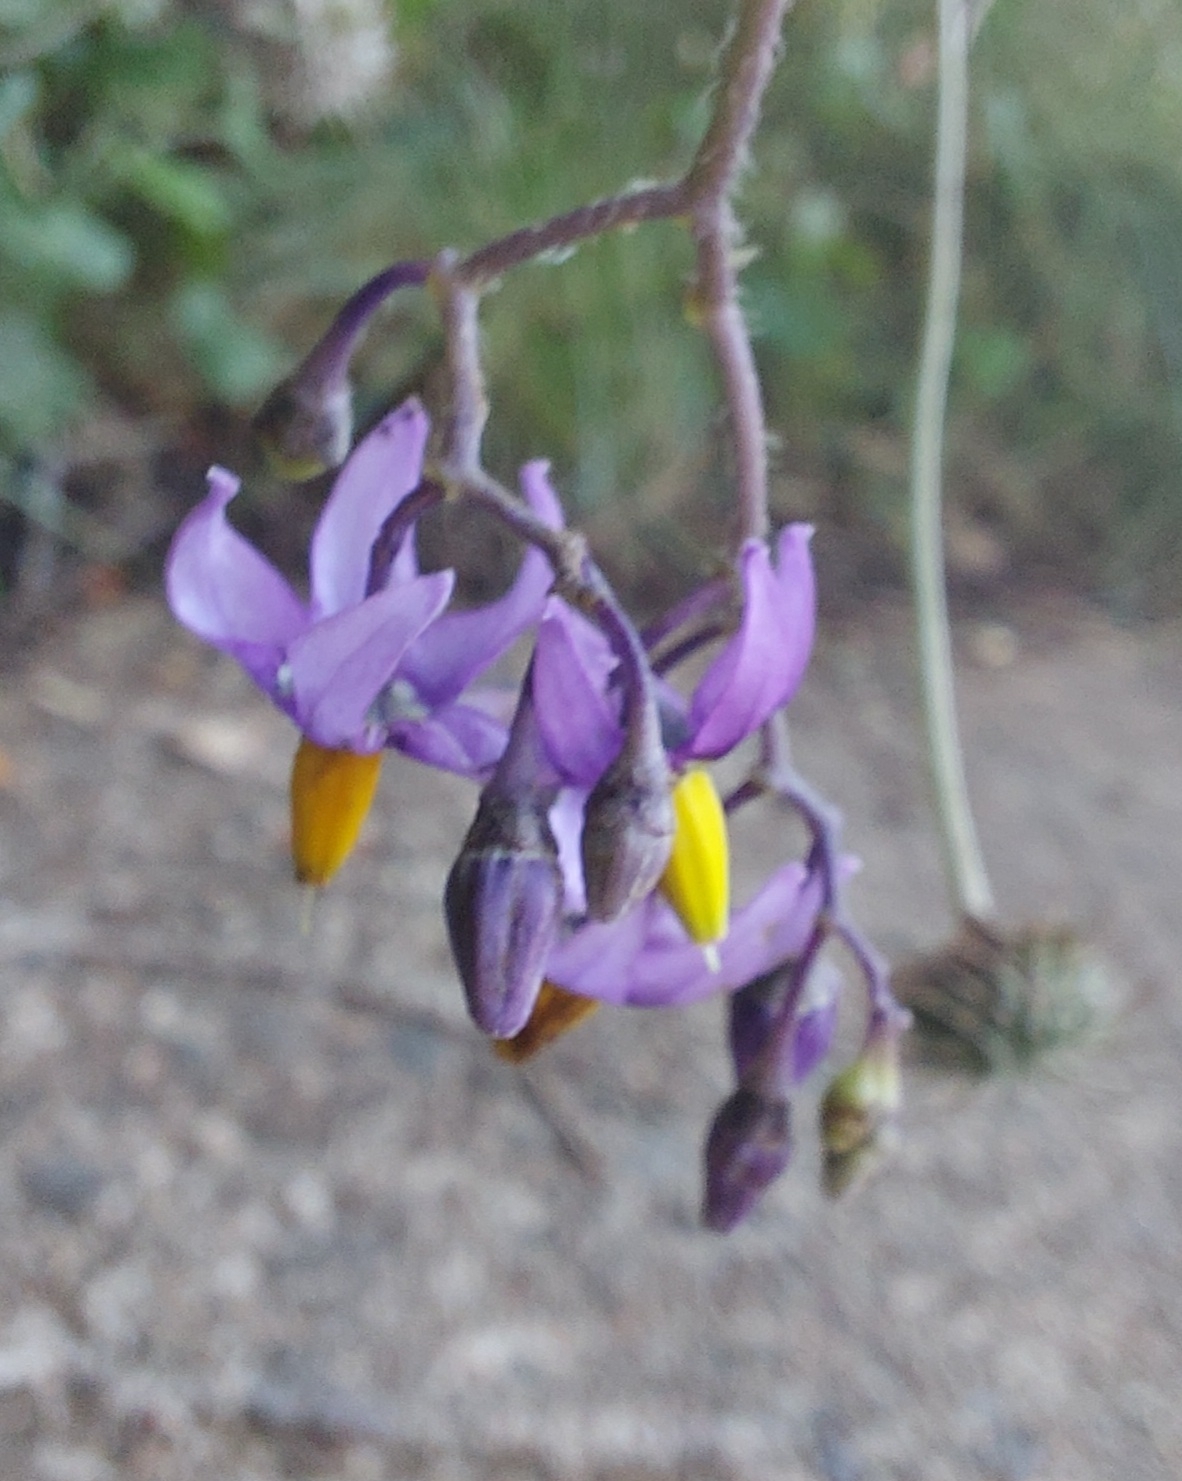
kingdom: Plantae
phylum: Tracheophyta
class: Magnoliopsida
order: Solanales
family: Solanaceae
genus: Solanum
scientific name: Solanum dulcamara
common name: Climbing nightshade
